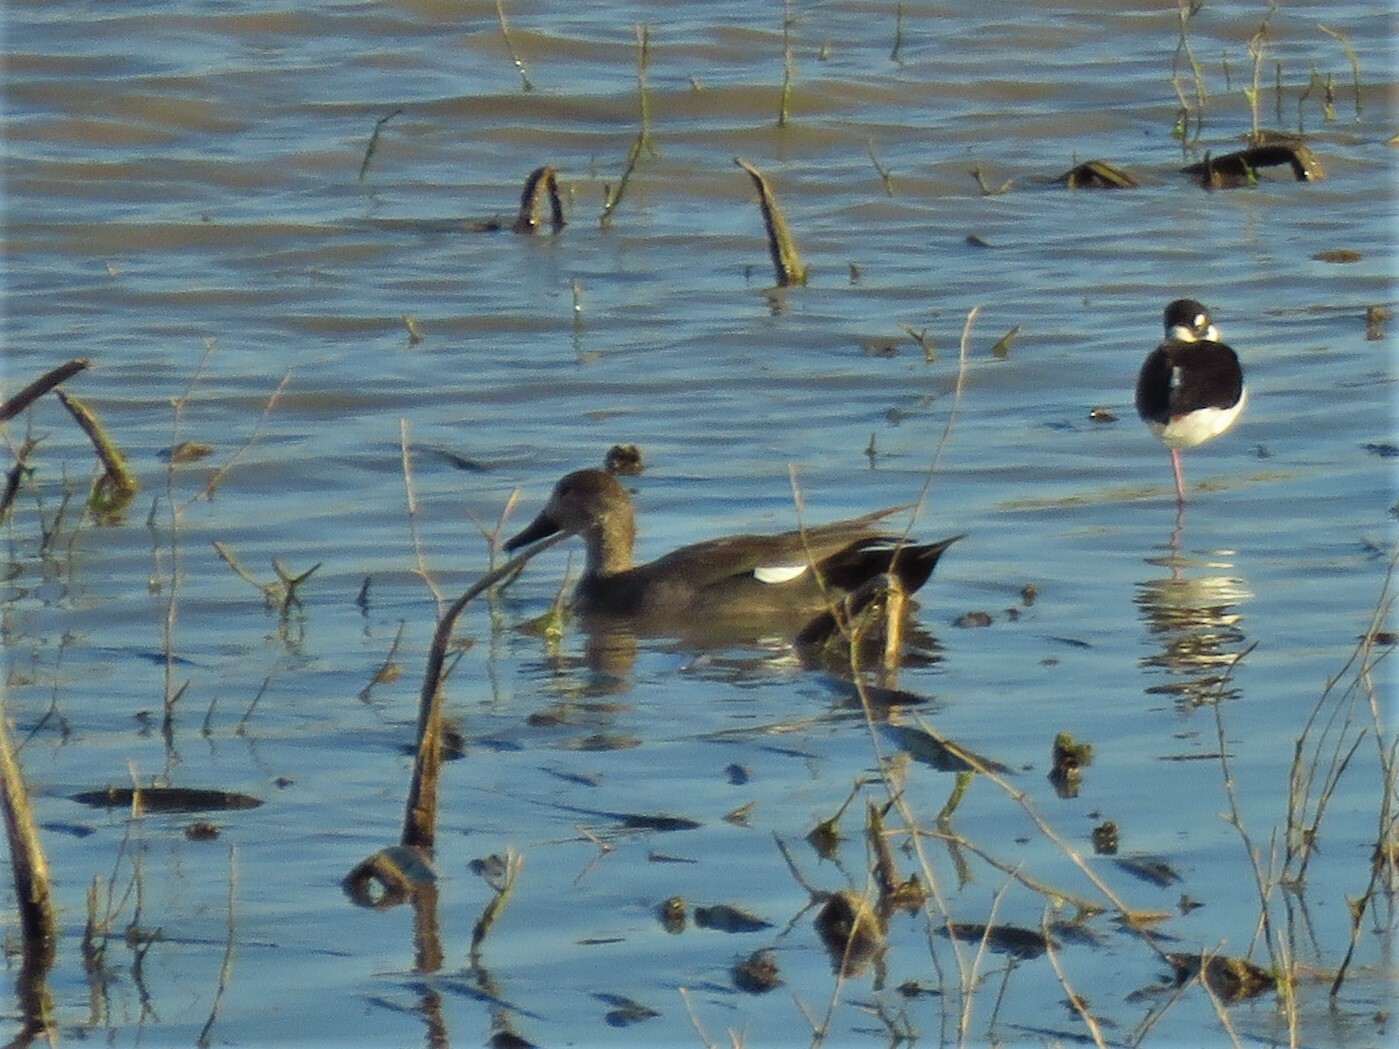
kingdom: Animalia
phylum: Chordata
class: Aves
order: Anseriformes
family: Anatidae
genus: Mareca
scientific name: Mareca strepera
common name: Gadwall
